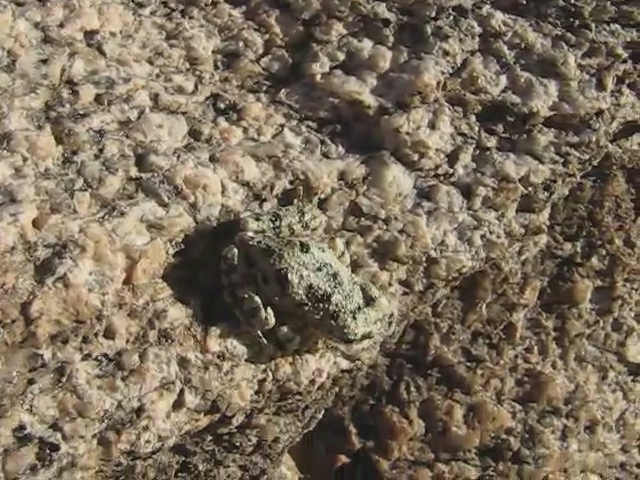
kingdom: Animalia
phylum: Chordata
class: Amphibia
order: Anura
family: Hylidae
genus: Dryophytes
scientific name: Dryophytes arenicolor
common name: Canyon treefrog
